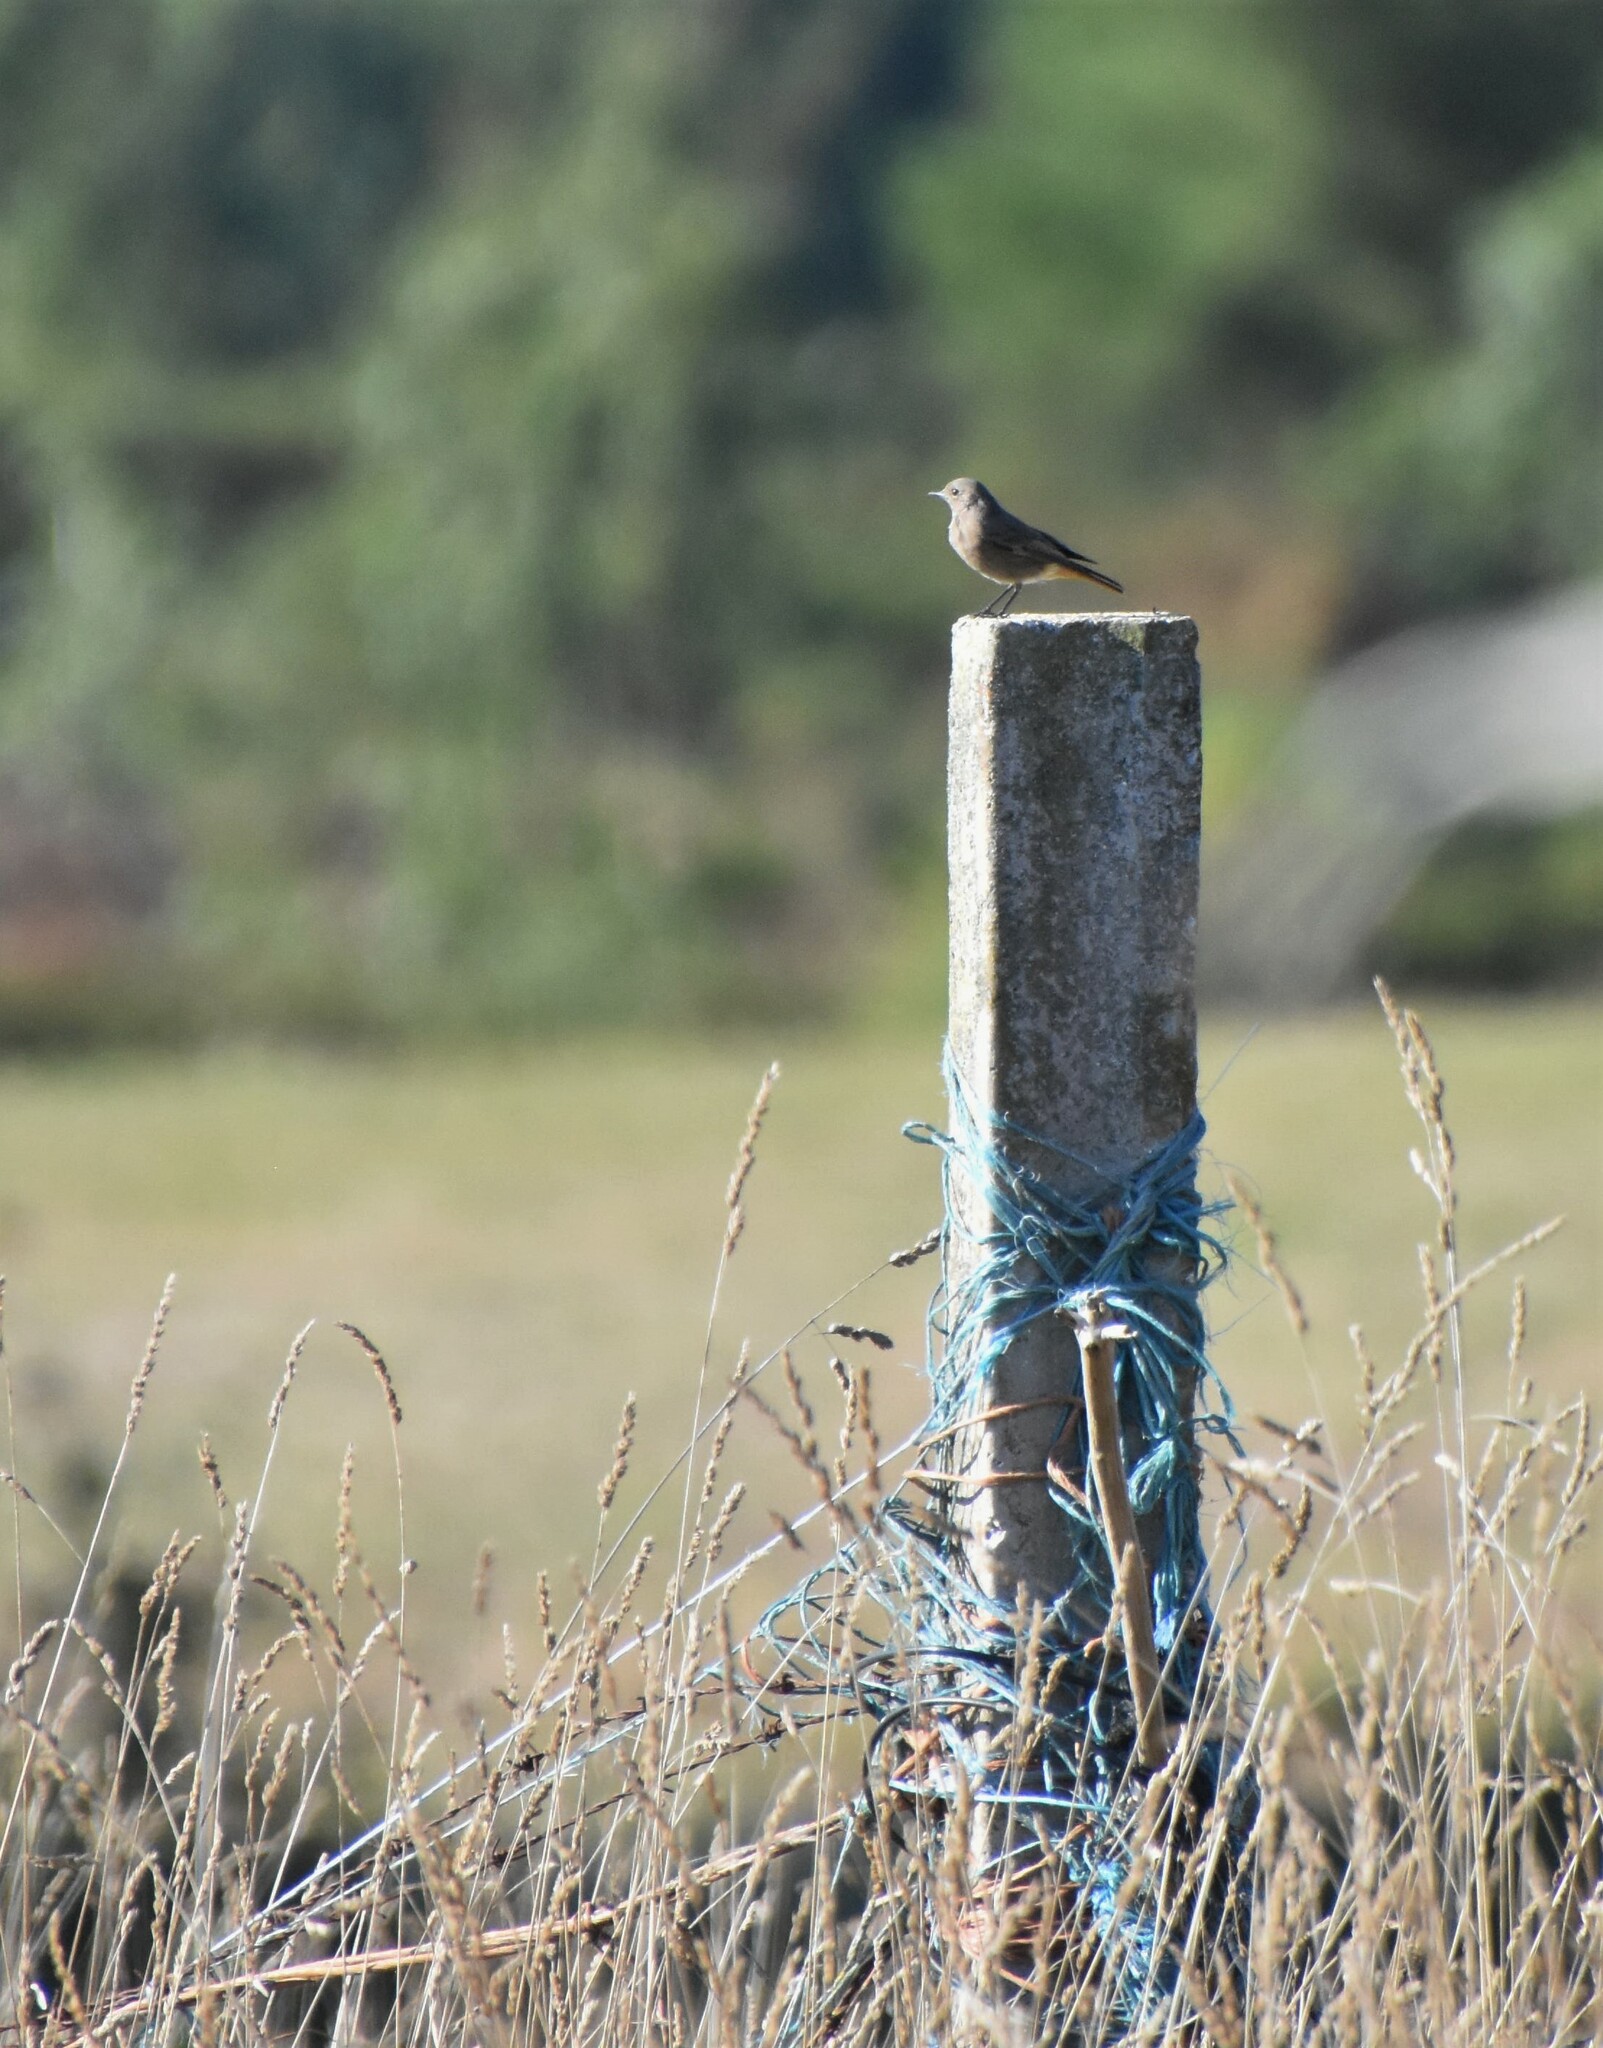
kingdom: Animalia
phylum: Chordata
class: Aves
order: Passeriformes
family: Muscicapidae
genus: Phoenicurus
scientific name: Phoenicurus ochruros
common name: Black redstart
